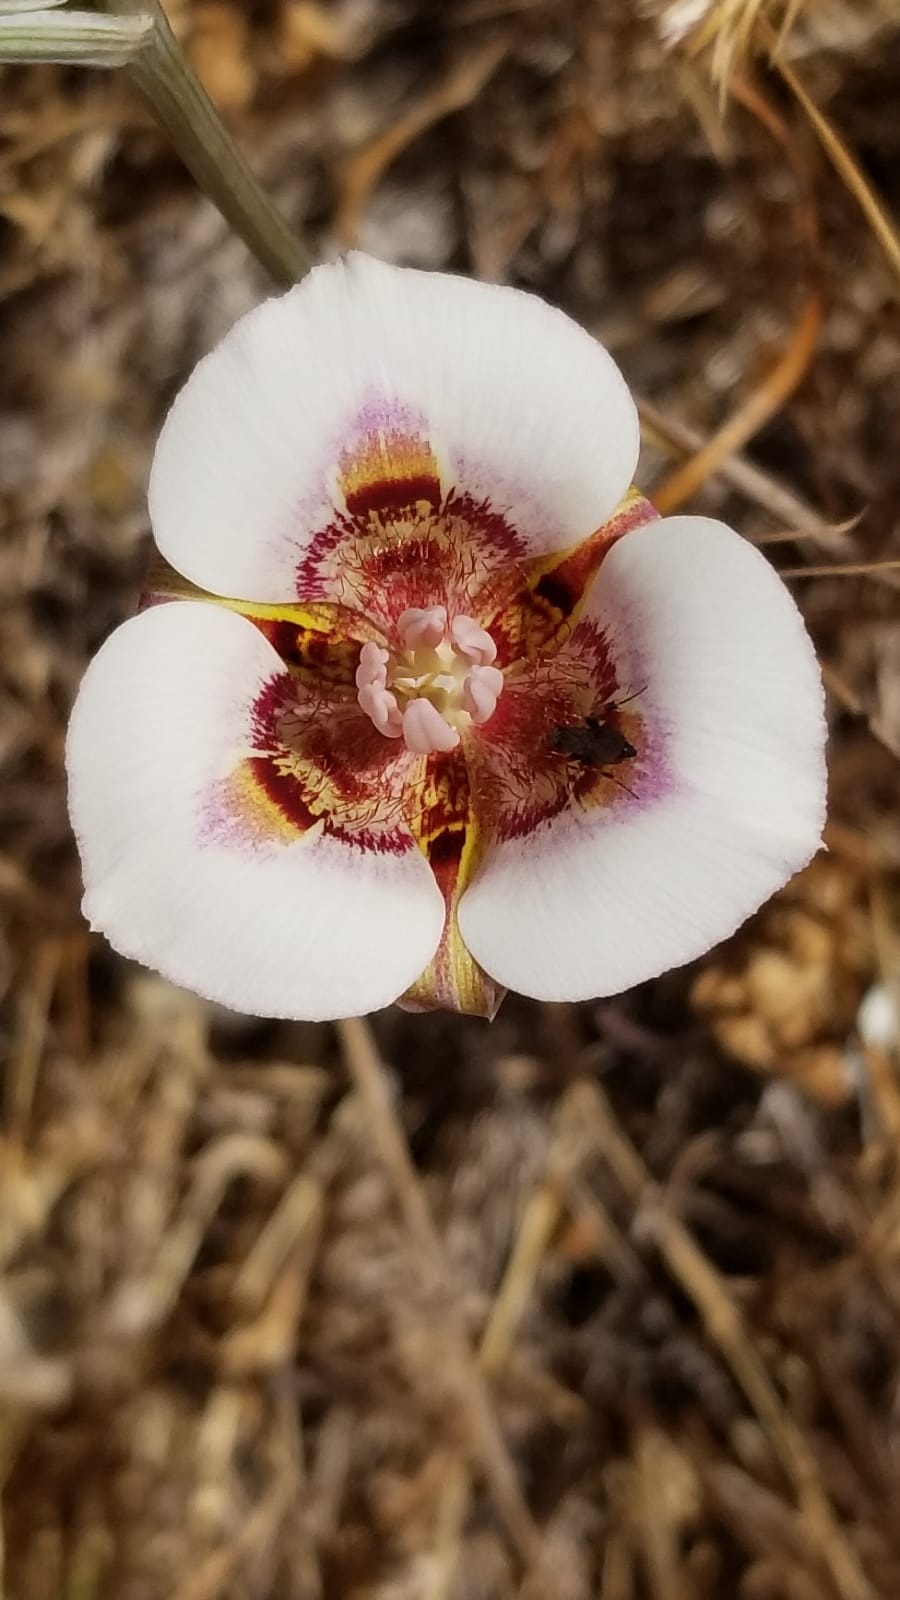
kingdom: Plantae
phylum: Tracheophyta
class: Liliopsida
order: Liliales
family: Liliaceae
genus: Calochortus
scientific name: Calochortus argillosus
